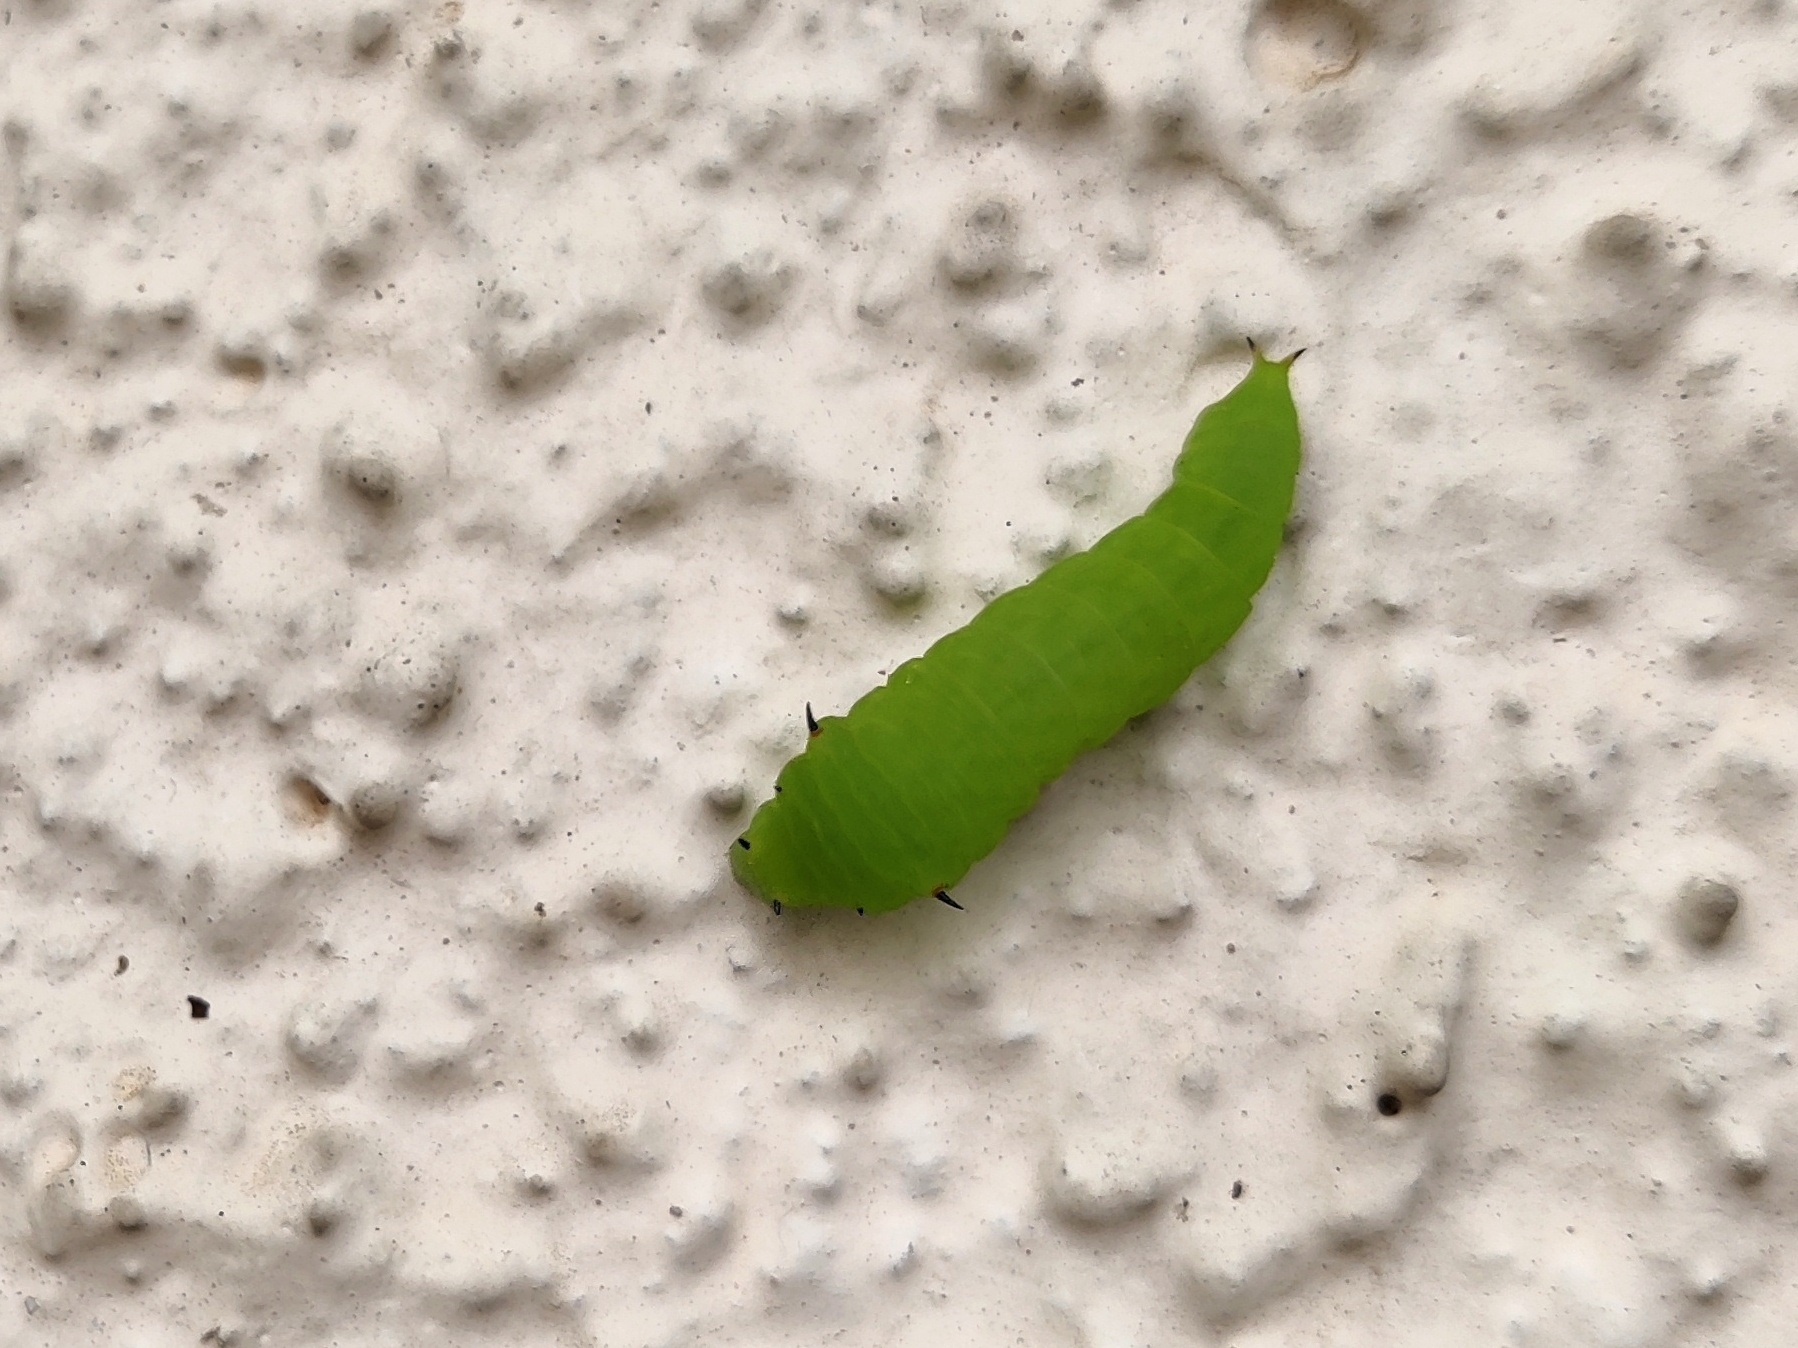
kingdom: Animalia
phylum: Arthropoda
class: Insecta
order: Lepidoptera
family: Papilionidae
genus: Graphium
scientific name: Graphium agamemnon
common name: Tailed jay
